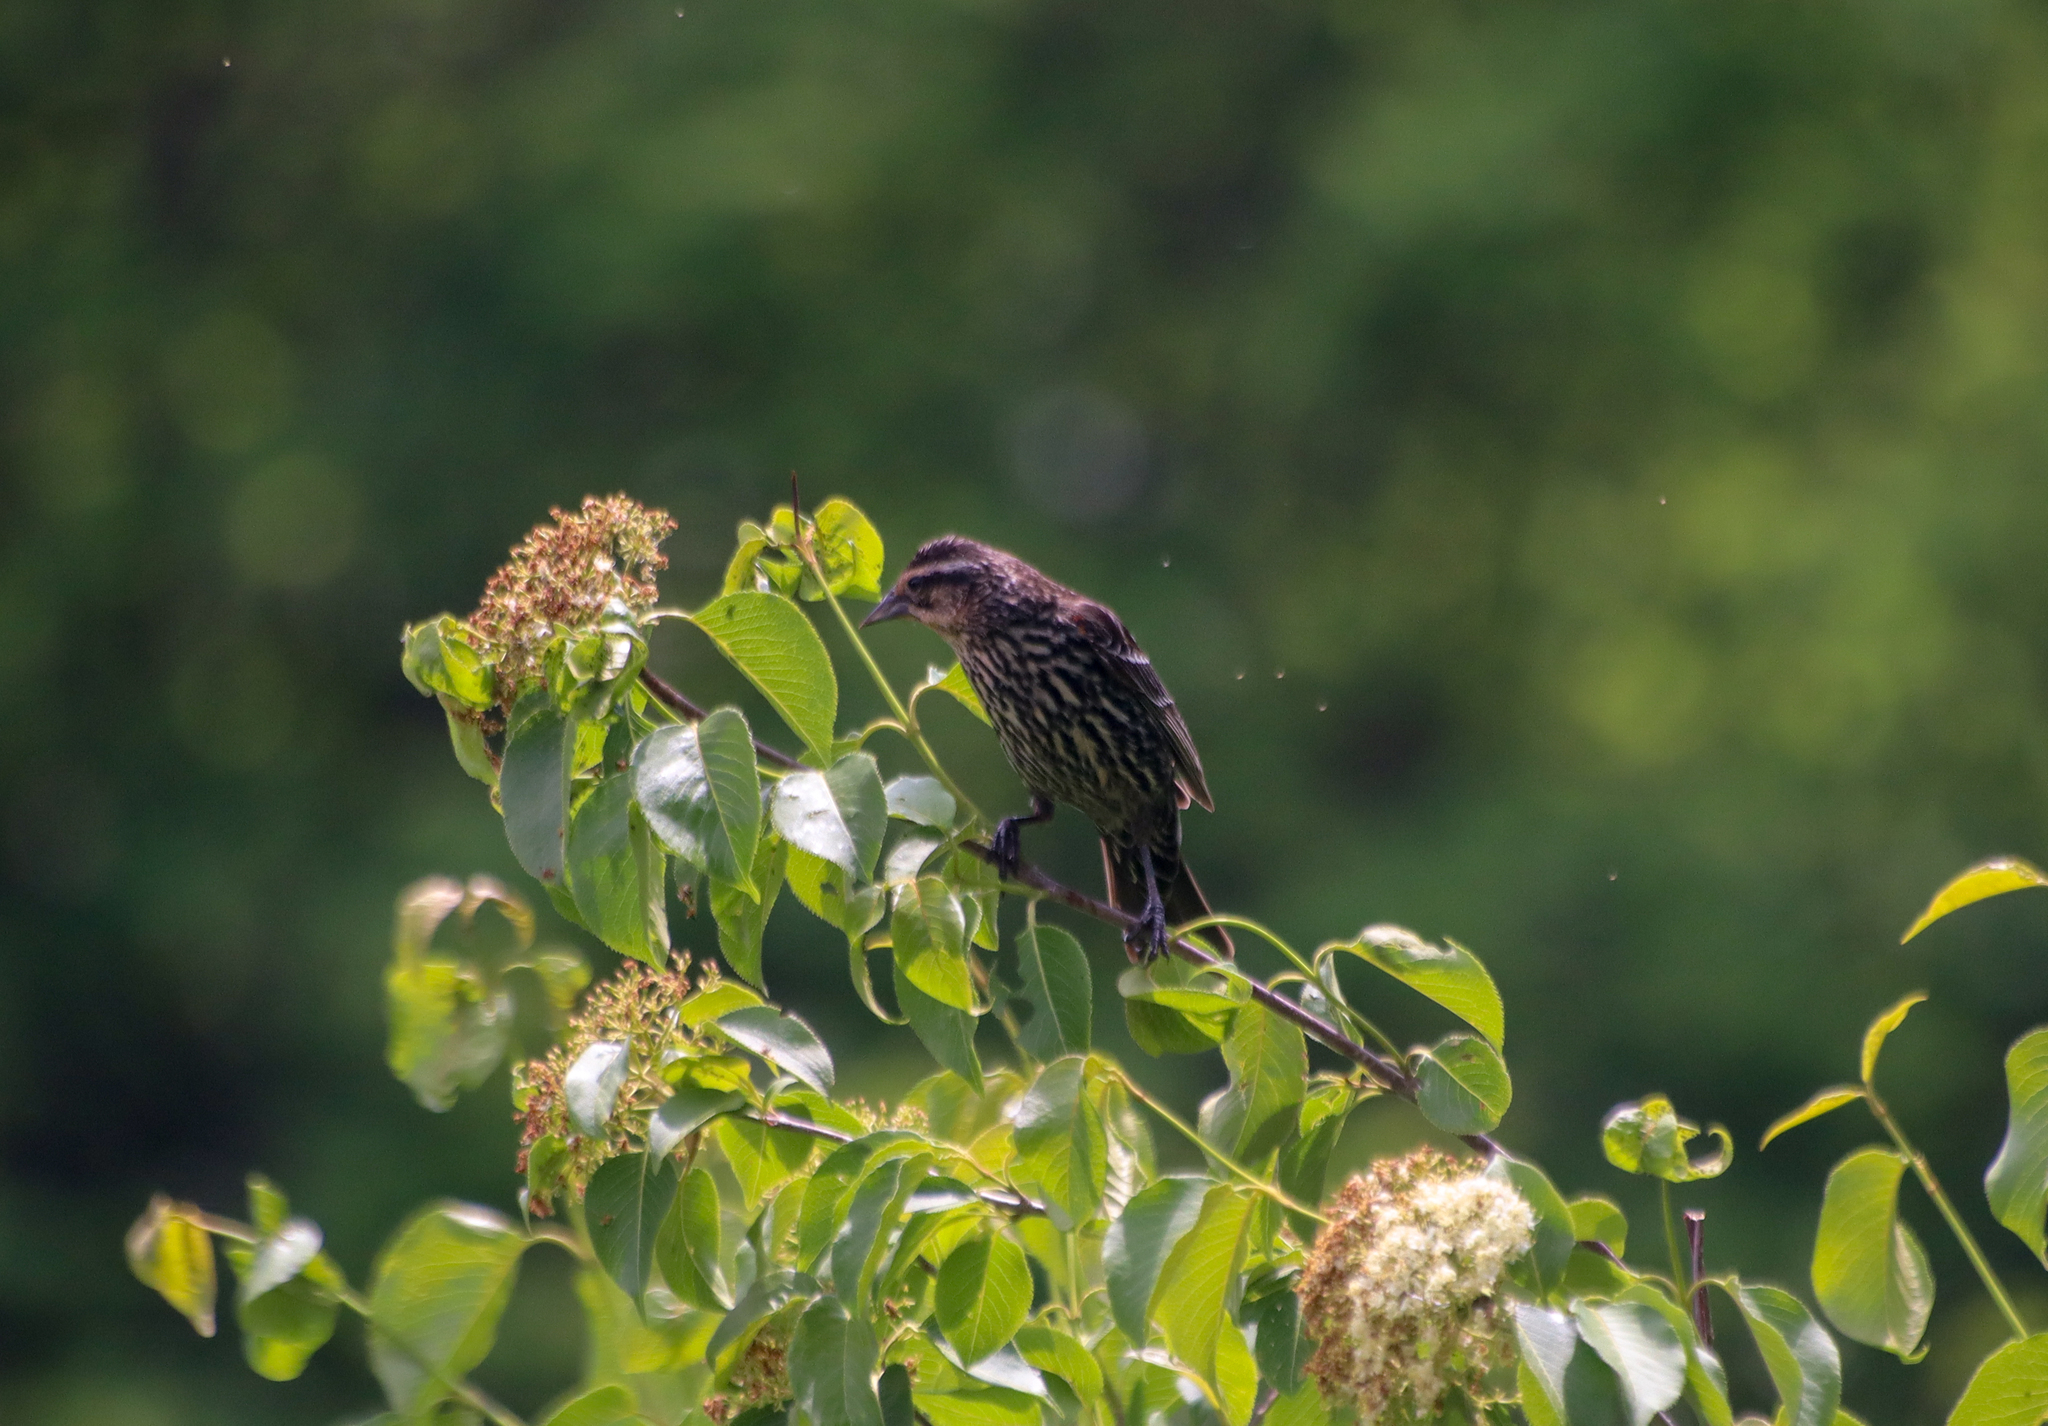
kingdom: Animalia
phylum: Chordata
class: Aves
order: Passeriformes
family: Icteridae
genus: Agelaius
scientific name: Agelaius phoeniceus
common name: Red-winged blackbird
